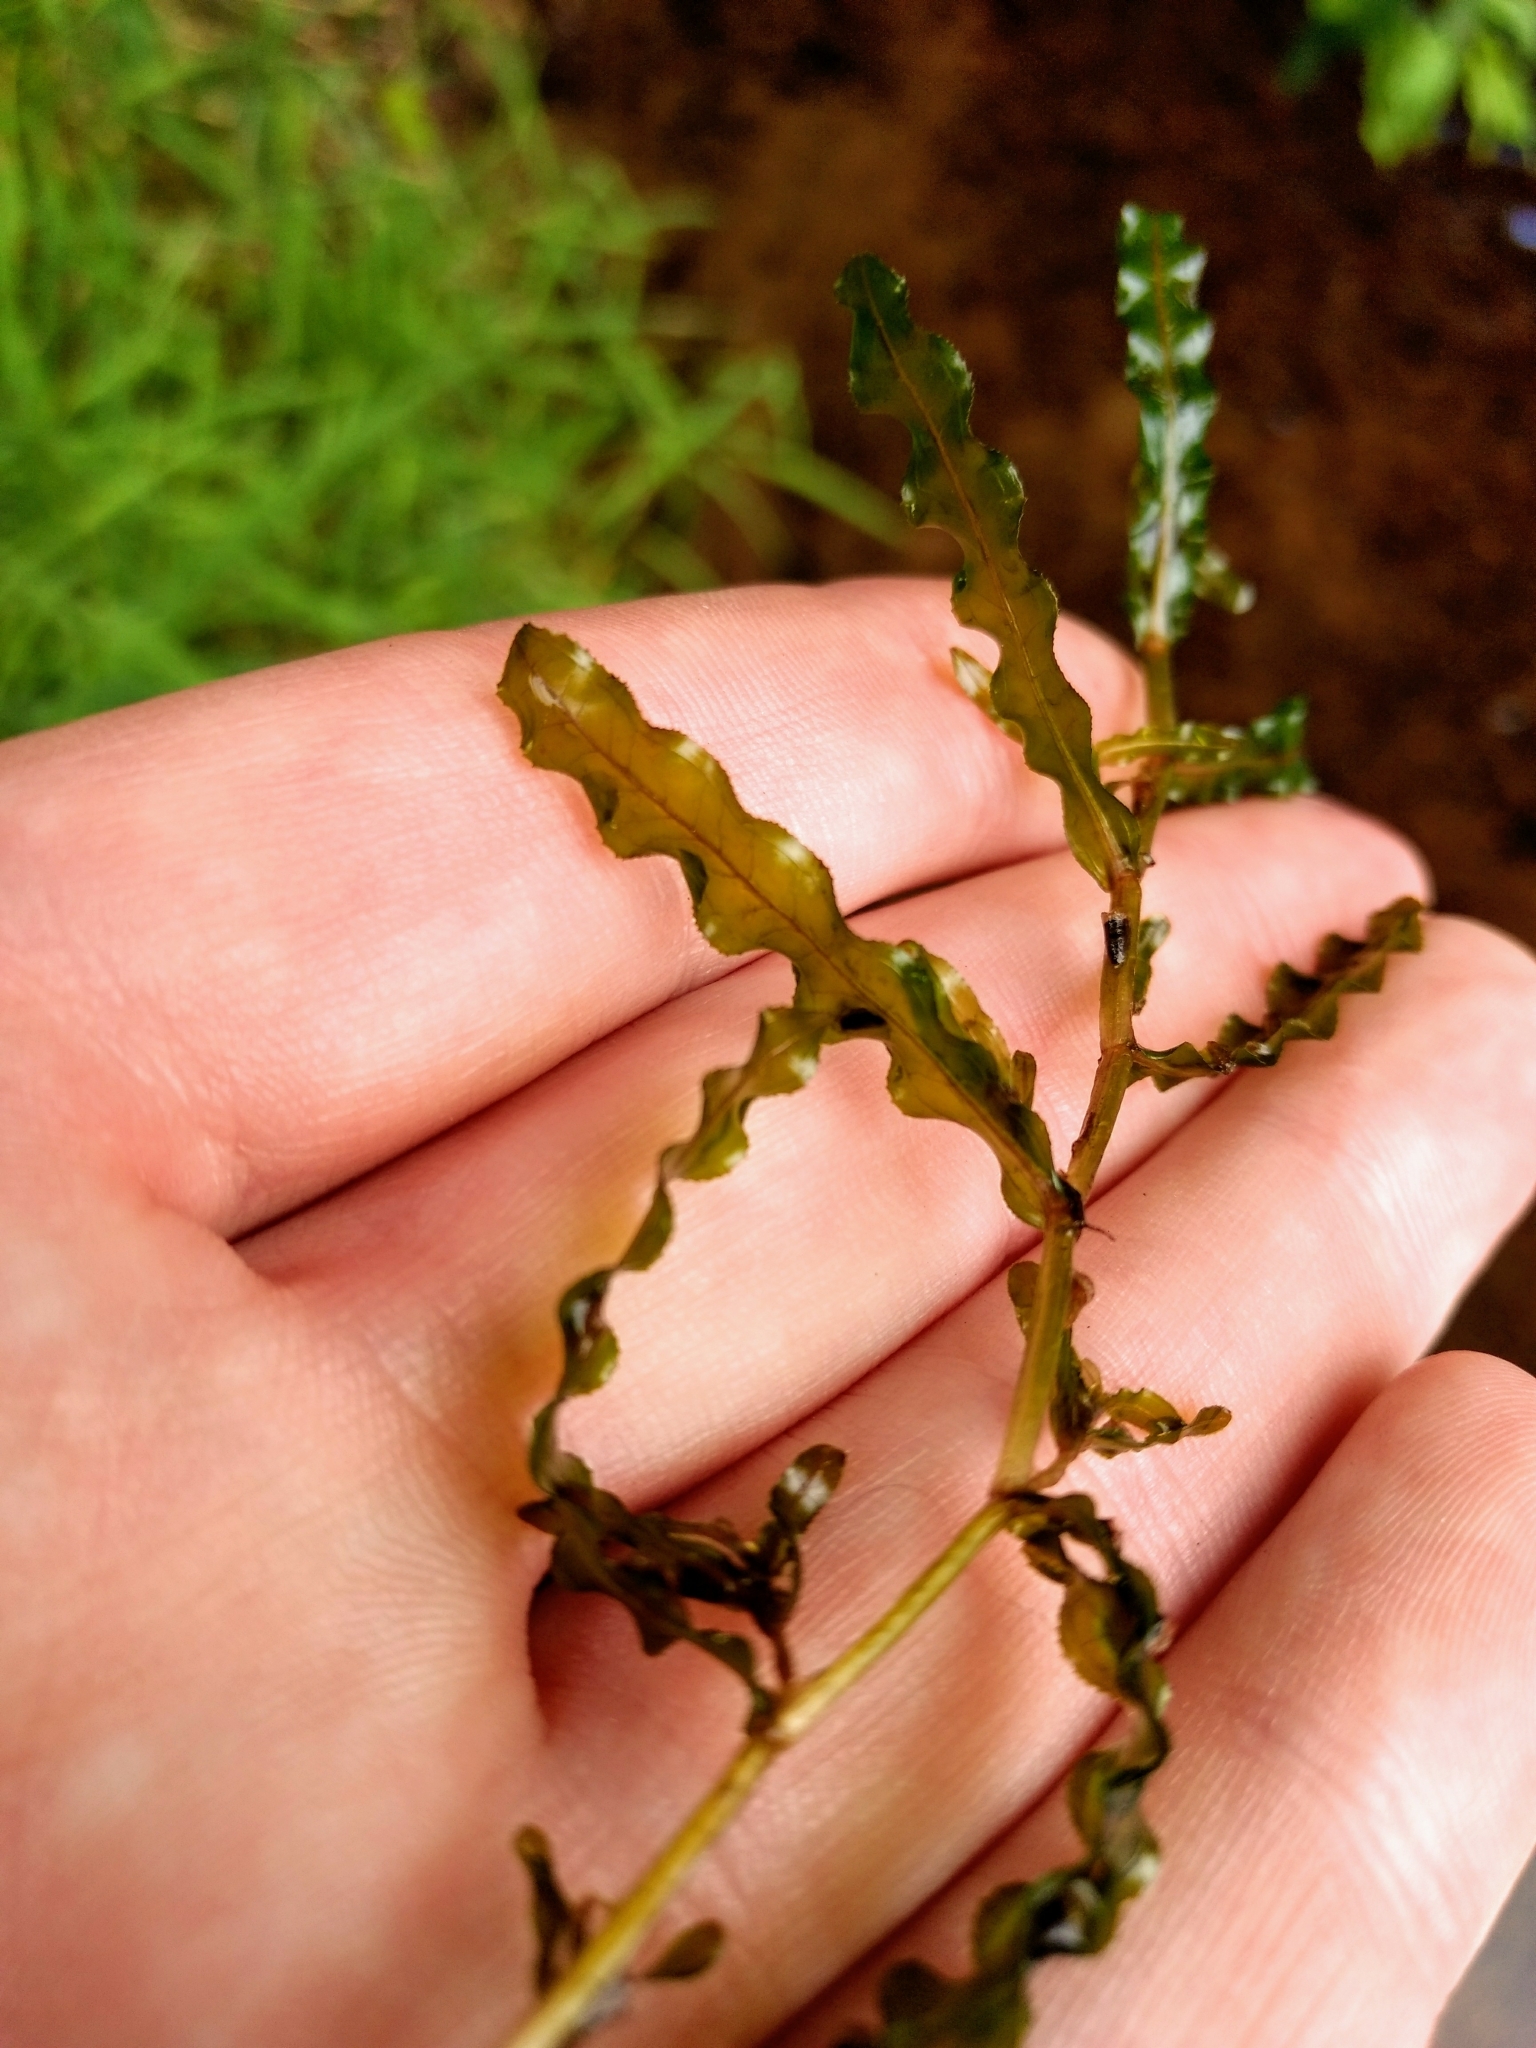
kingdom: Plantae
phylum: Tracheophyta
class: Liliopsida
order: Alismatales
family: Potamogetonaceae
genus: Potamogeton
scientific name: Potamogeton crispus
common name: Curled pondweed
